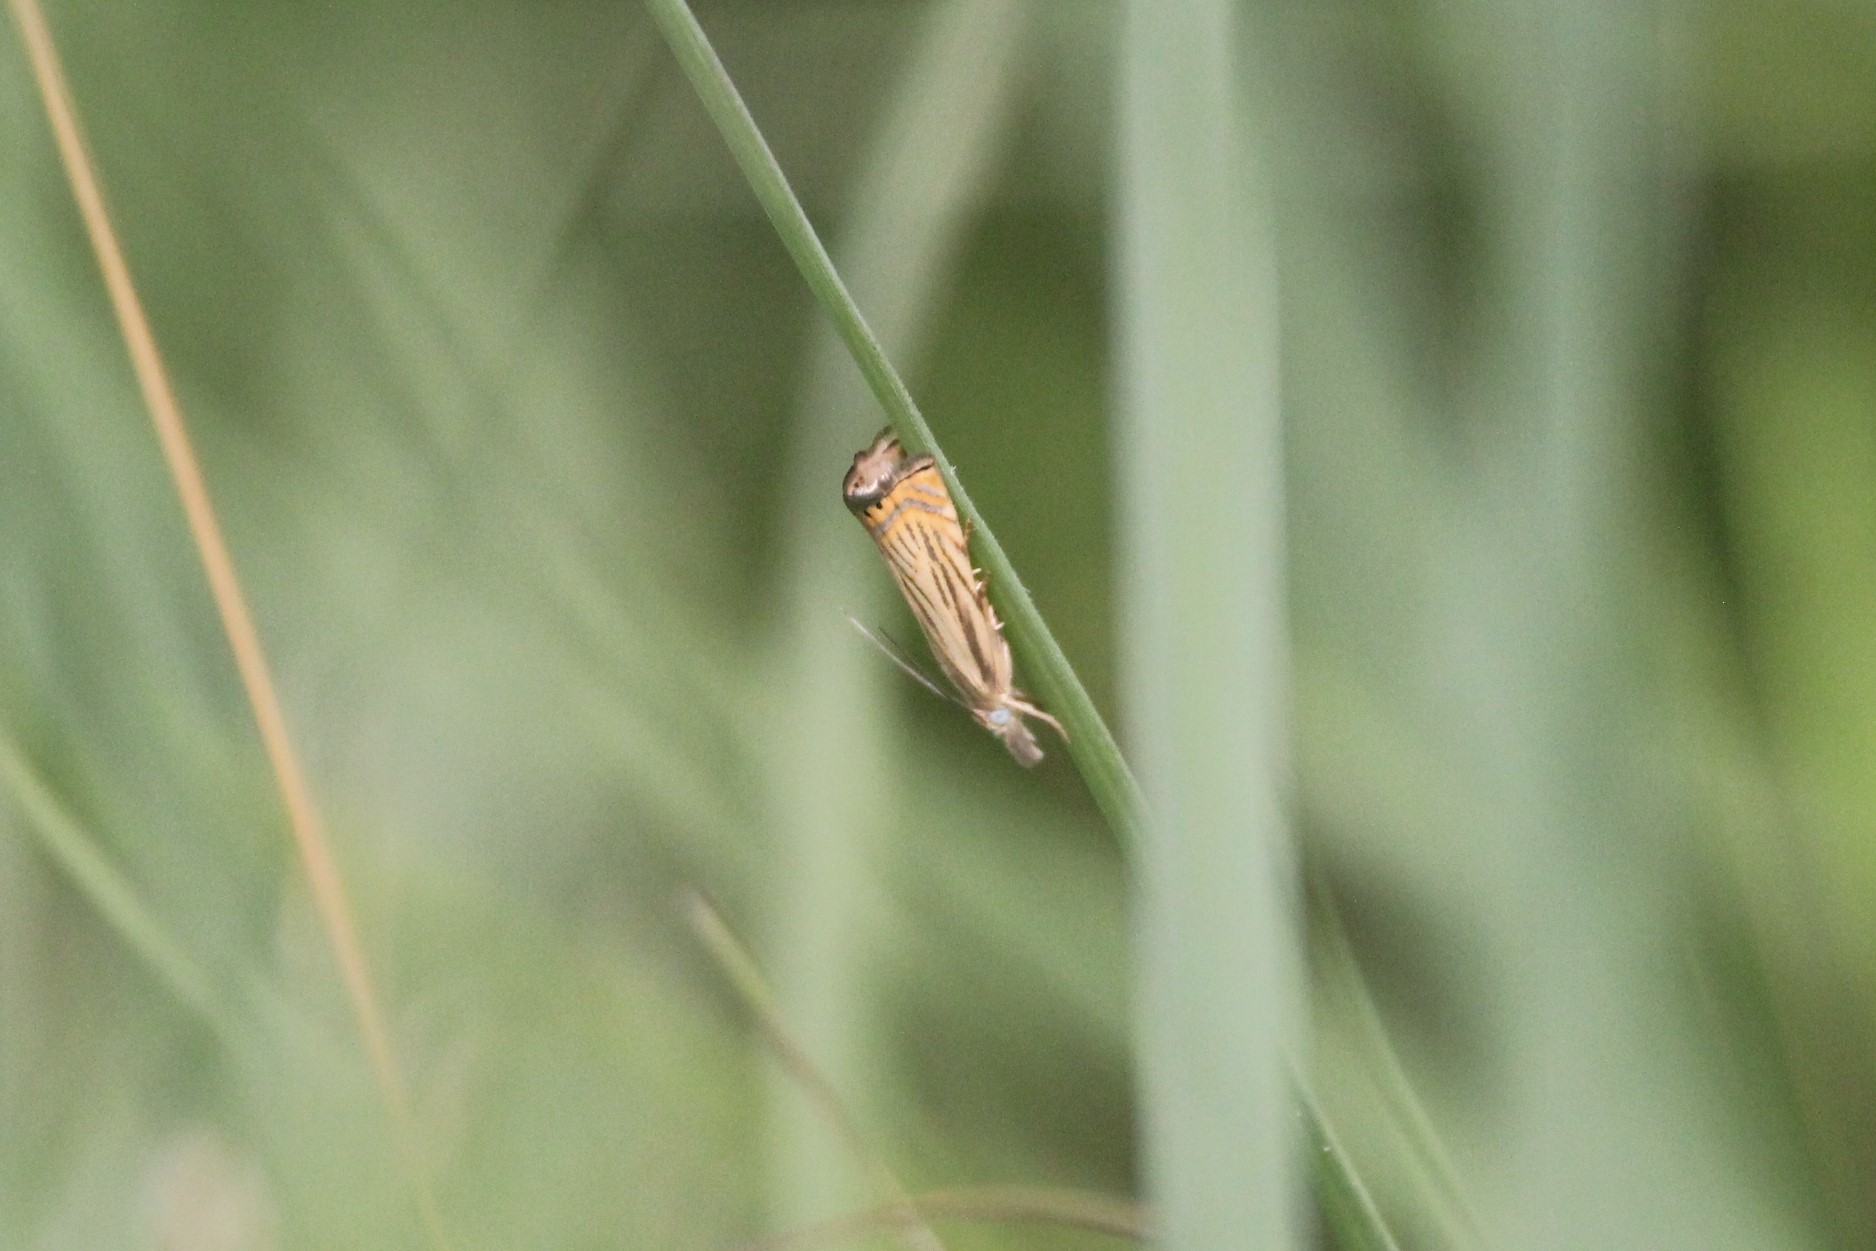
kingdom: Animalia
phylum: Arthropoda
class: Insecta
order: Lepidoptera
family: Crambidae
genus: Chrysoteuchia
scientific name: Chrysoteuchia topiarius
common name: Topiary grass-veneer
